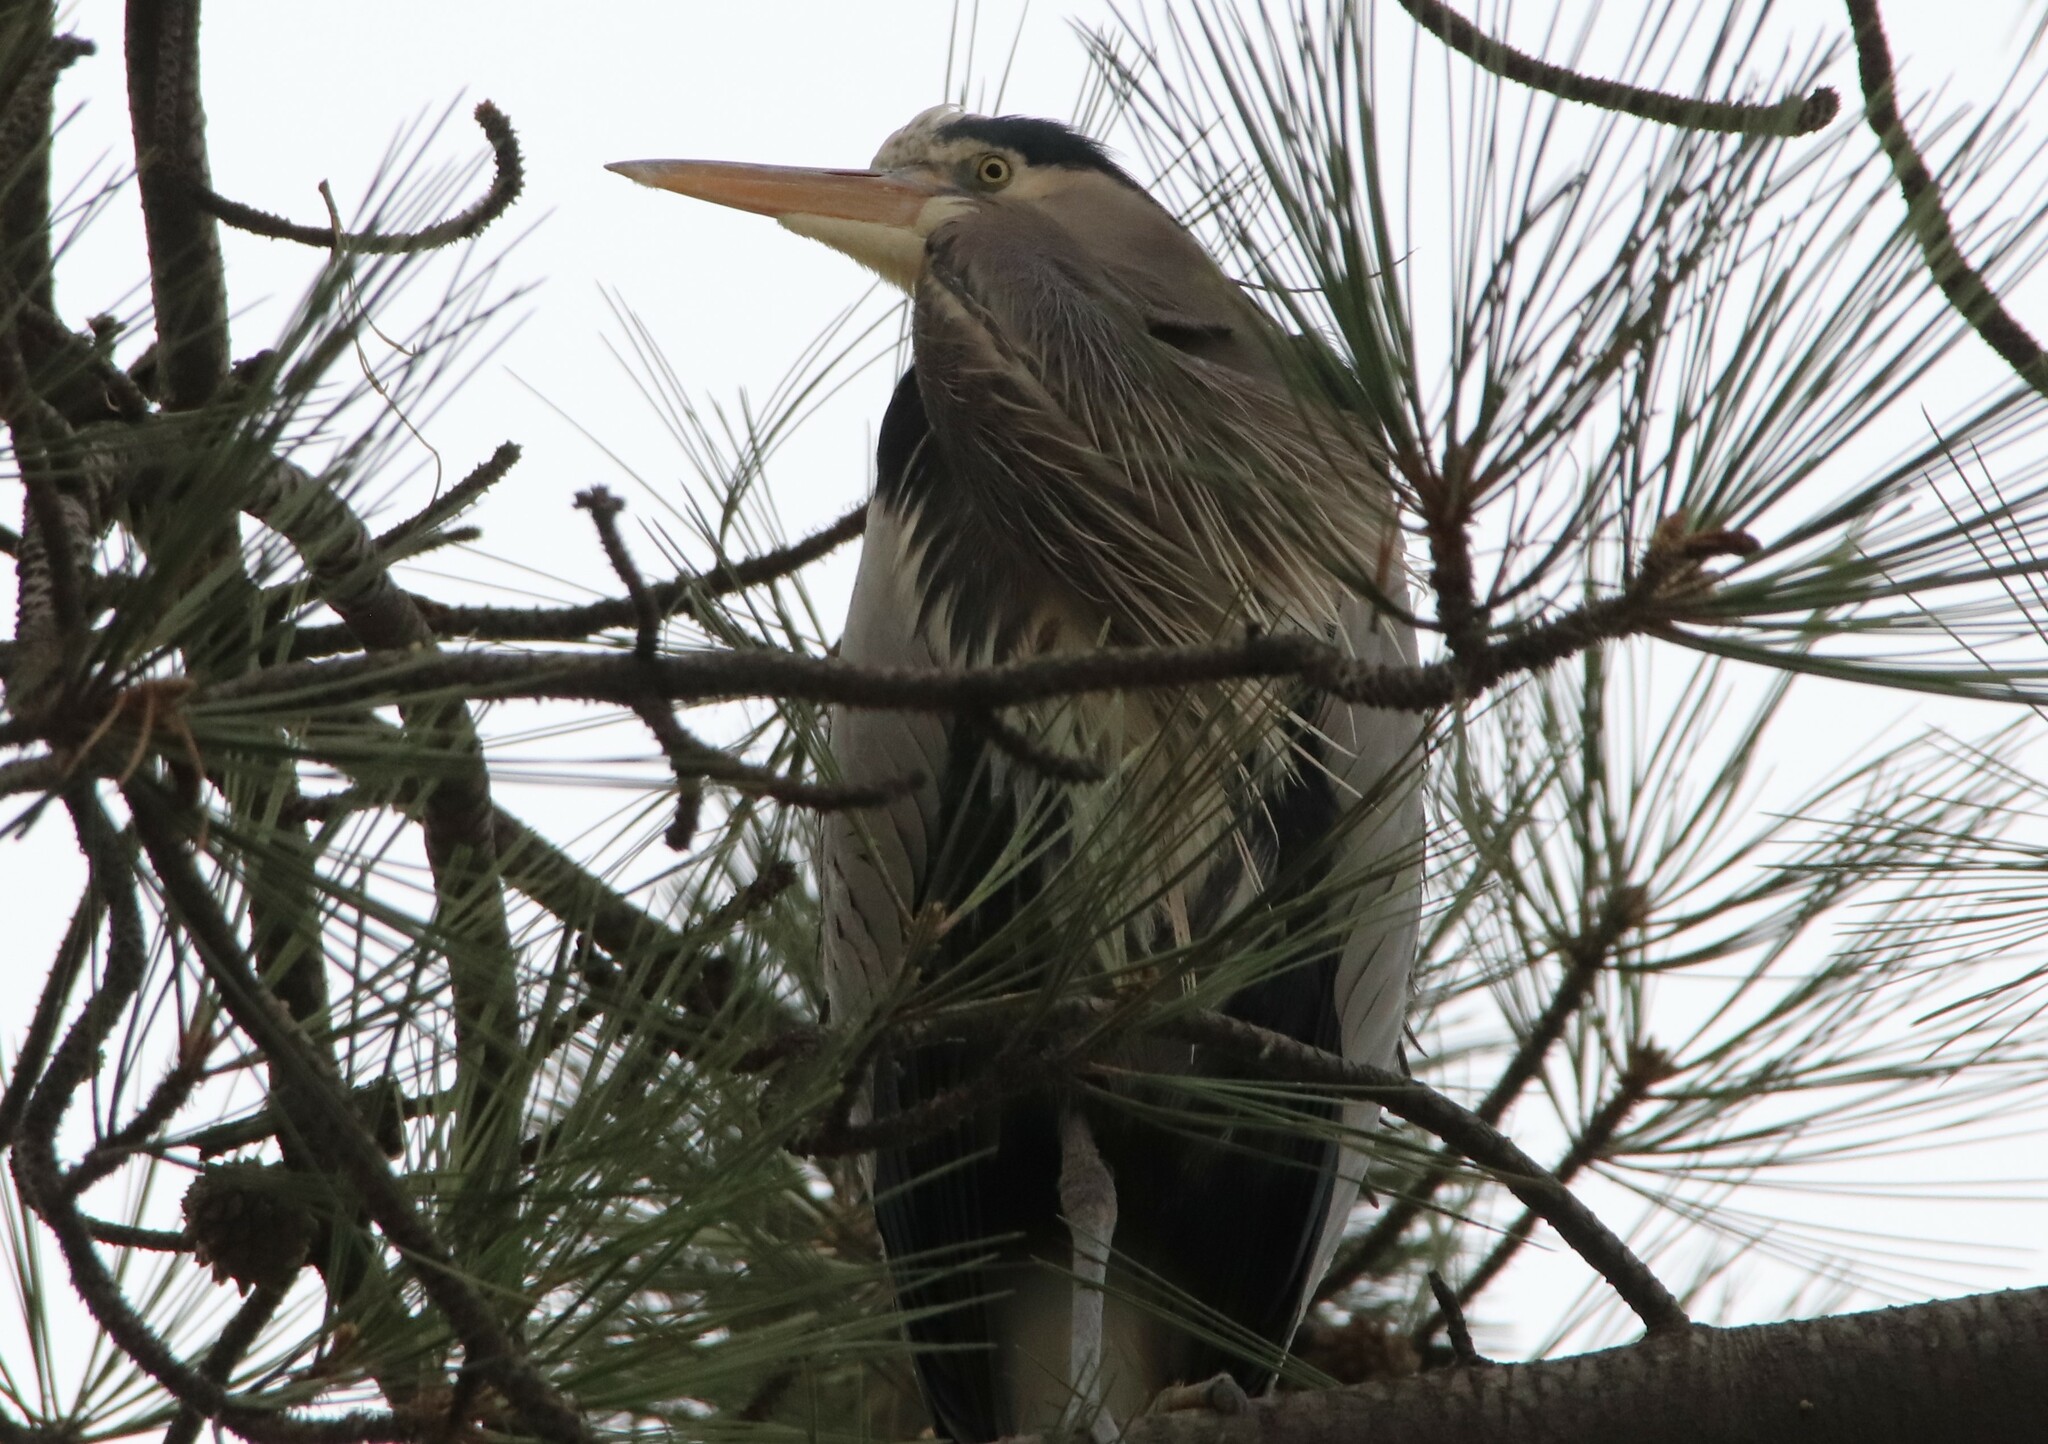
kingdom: Animalia
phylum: Chordata
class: Aves
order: Pelecaniformes
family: Ardeidae
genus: Ardea
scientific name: Ardea herodias
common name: Great blue heron
